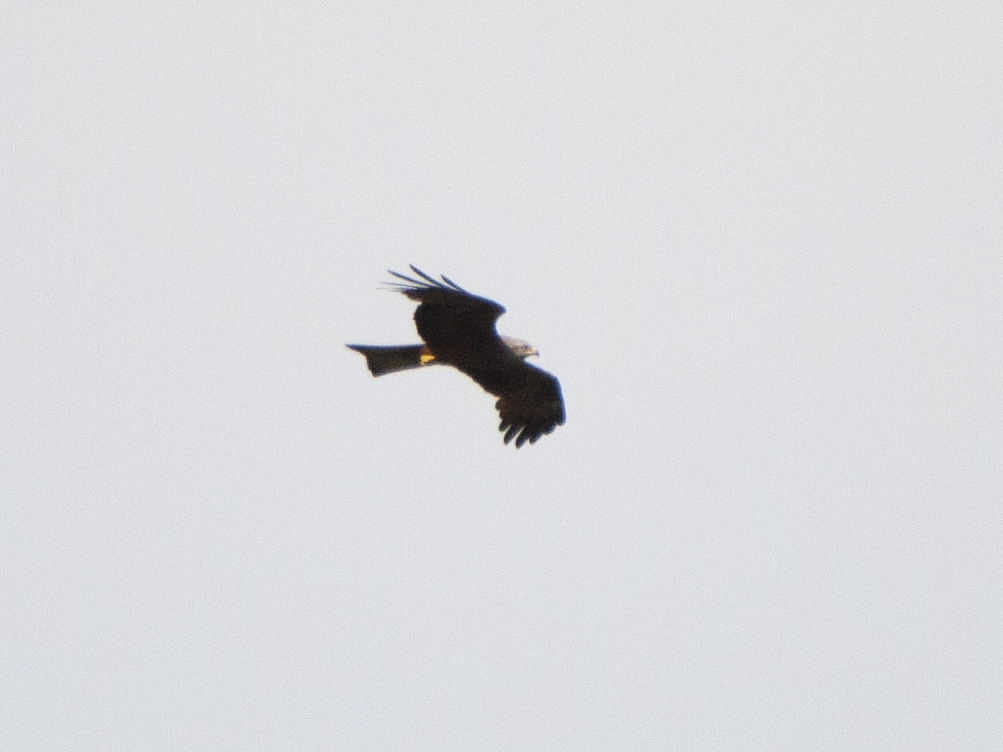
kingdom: Animalia
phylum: Chordata
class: Aves
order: Accipitriformes
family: Accipitridae
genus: Milvus
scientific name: Milvus migrans
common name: Black kite
